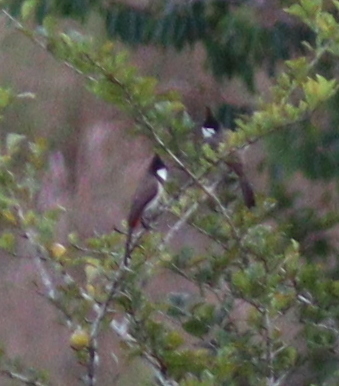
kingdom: Animalia
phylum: Chordata
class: Aves
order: Passeriformes
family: Pycnonotidae
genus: Pycnonotus
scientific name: Pycnonotus jocosus
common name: Red-whiskered bulbul
